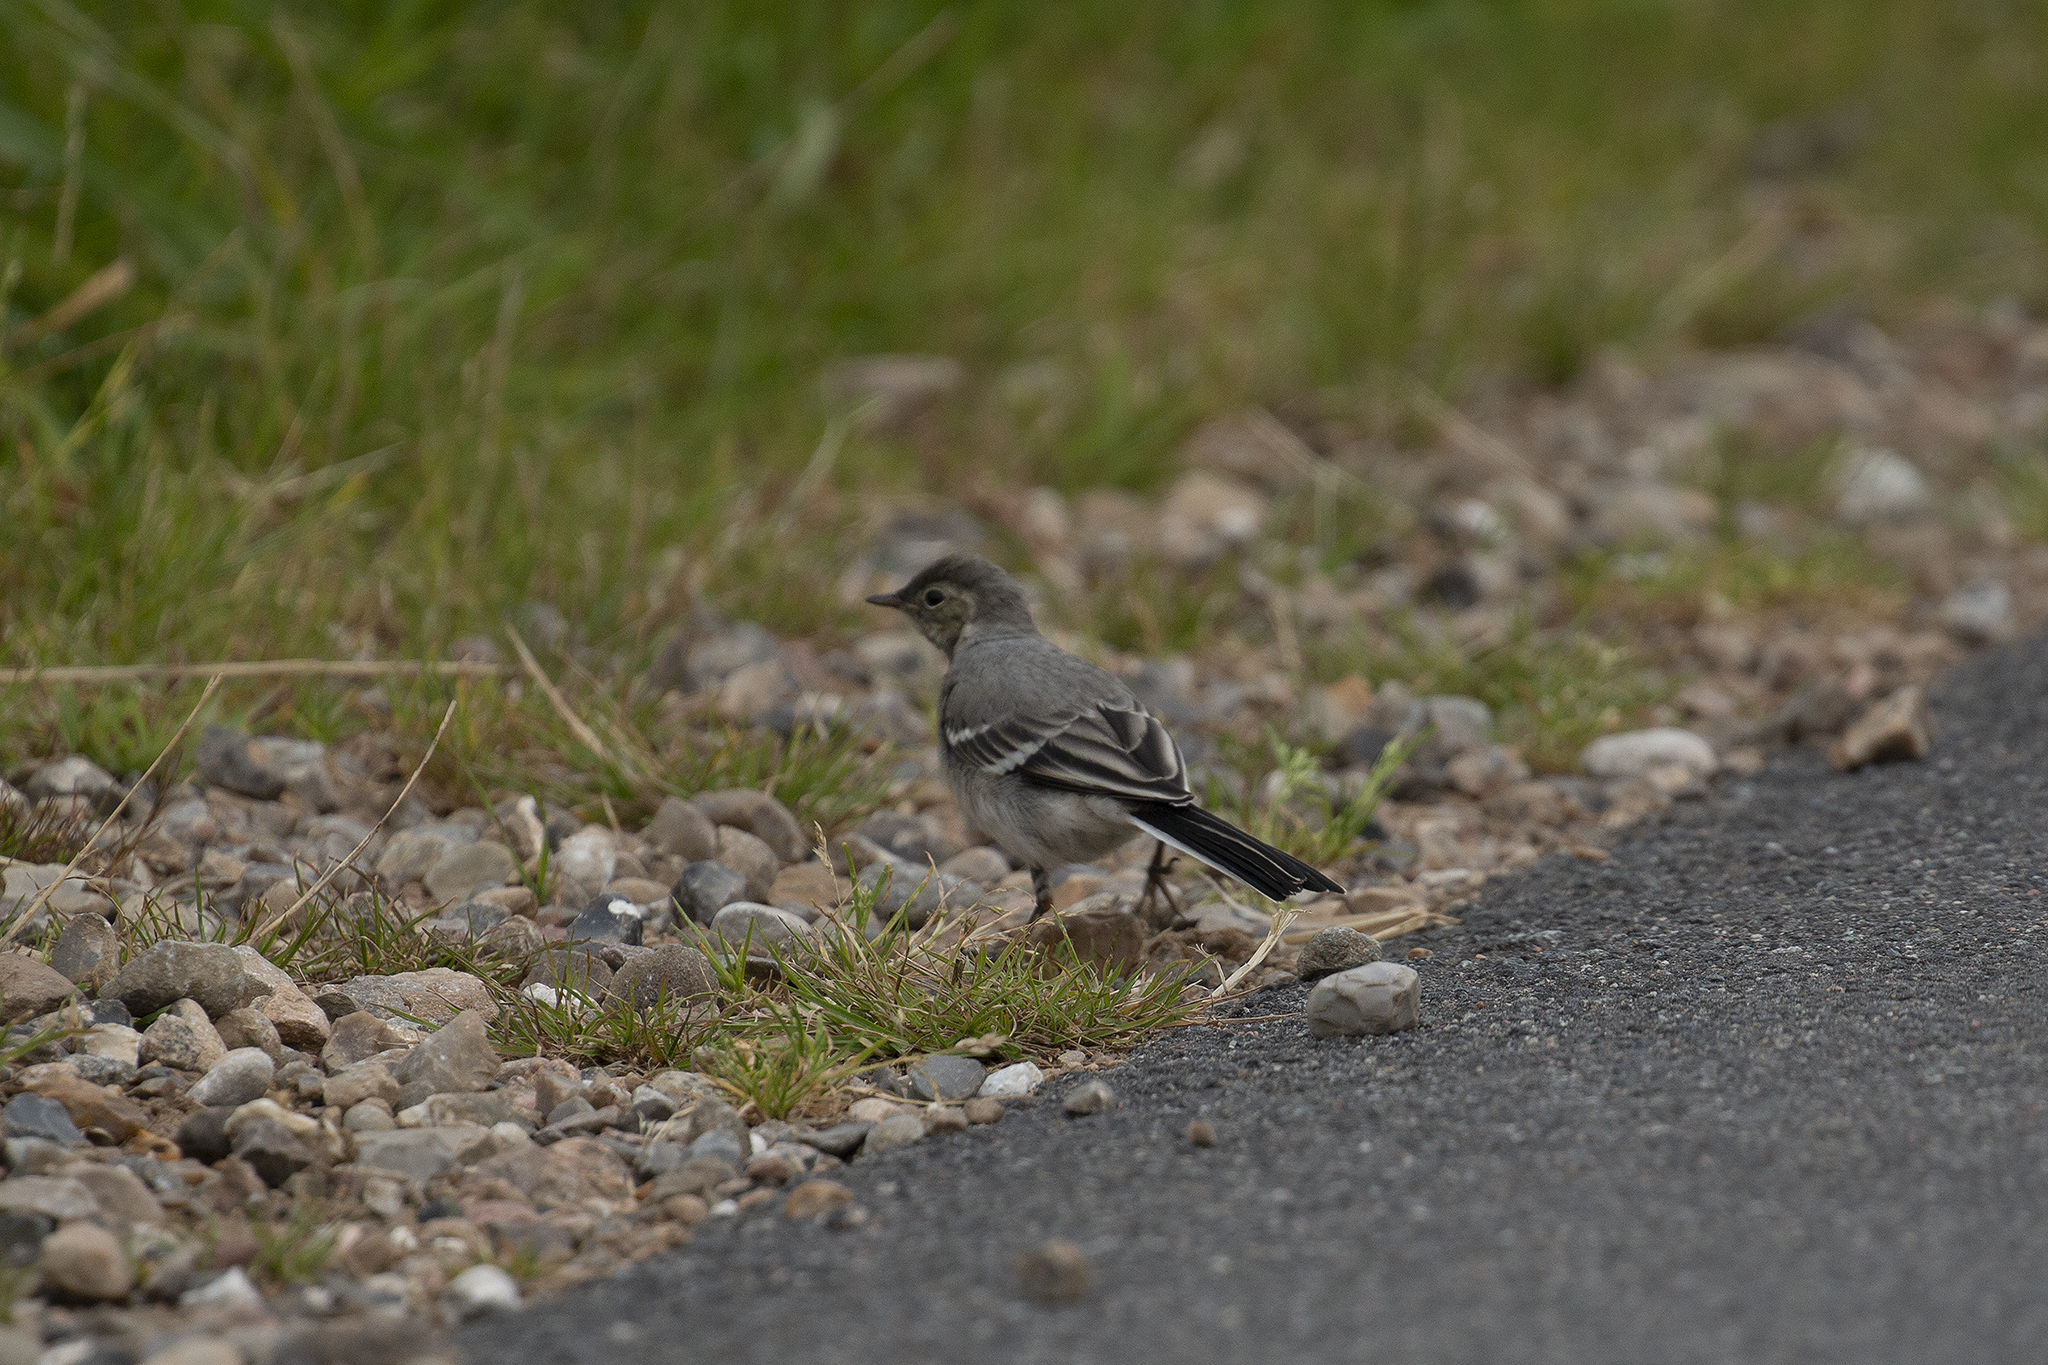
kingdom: Animalia
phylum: Chordata
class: Aves
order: Passeriformes
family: Motacillidae
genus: Motacilla
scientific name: Motacilla alba
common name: White wagtail
